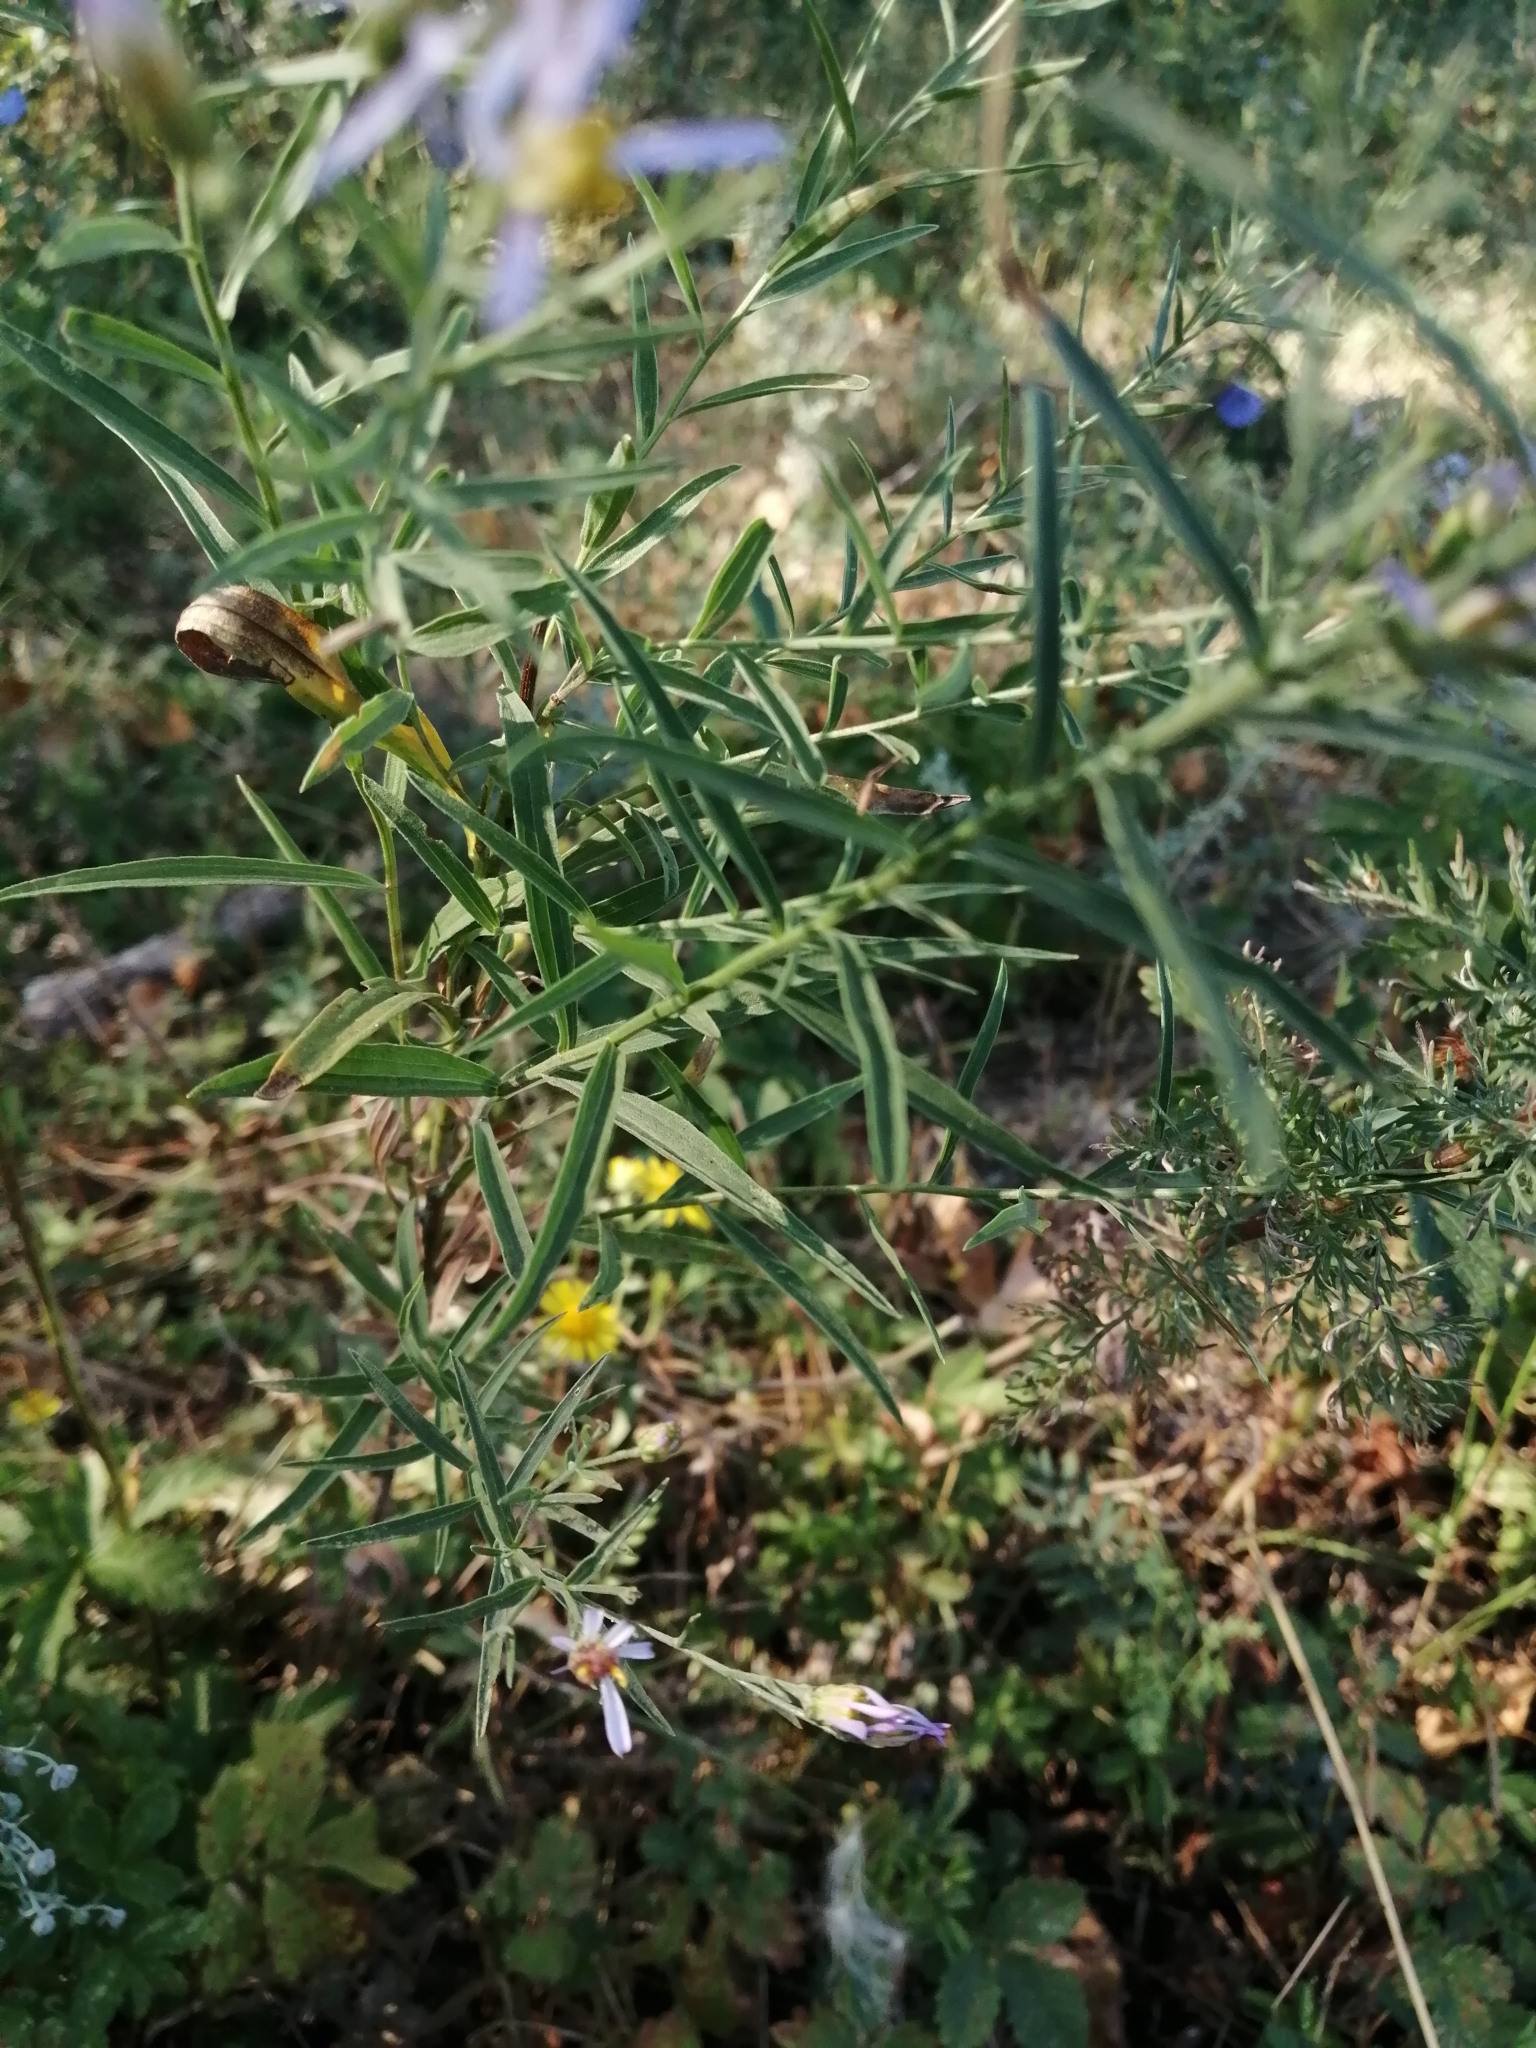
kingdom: Plantae
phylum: Tracheophyta
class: Magnoliopsida
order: Asterales
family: Asteraceae
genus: Galatella
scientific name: Galatella sedifolia
